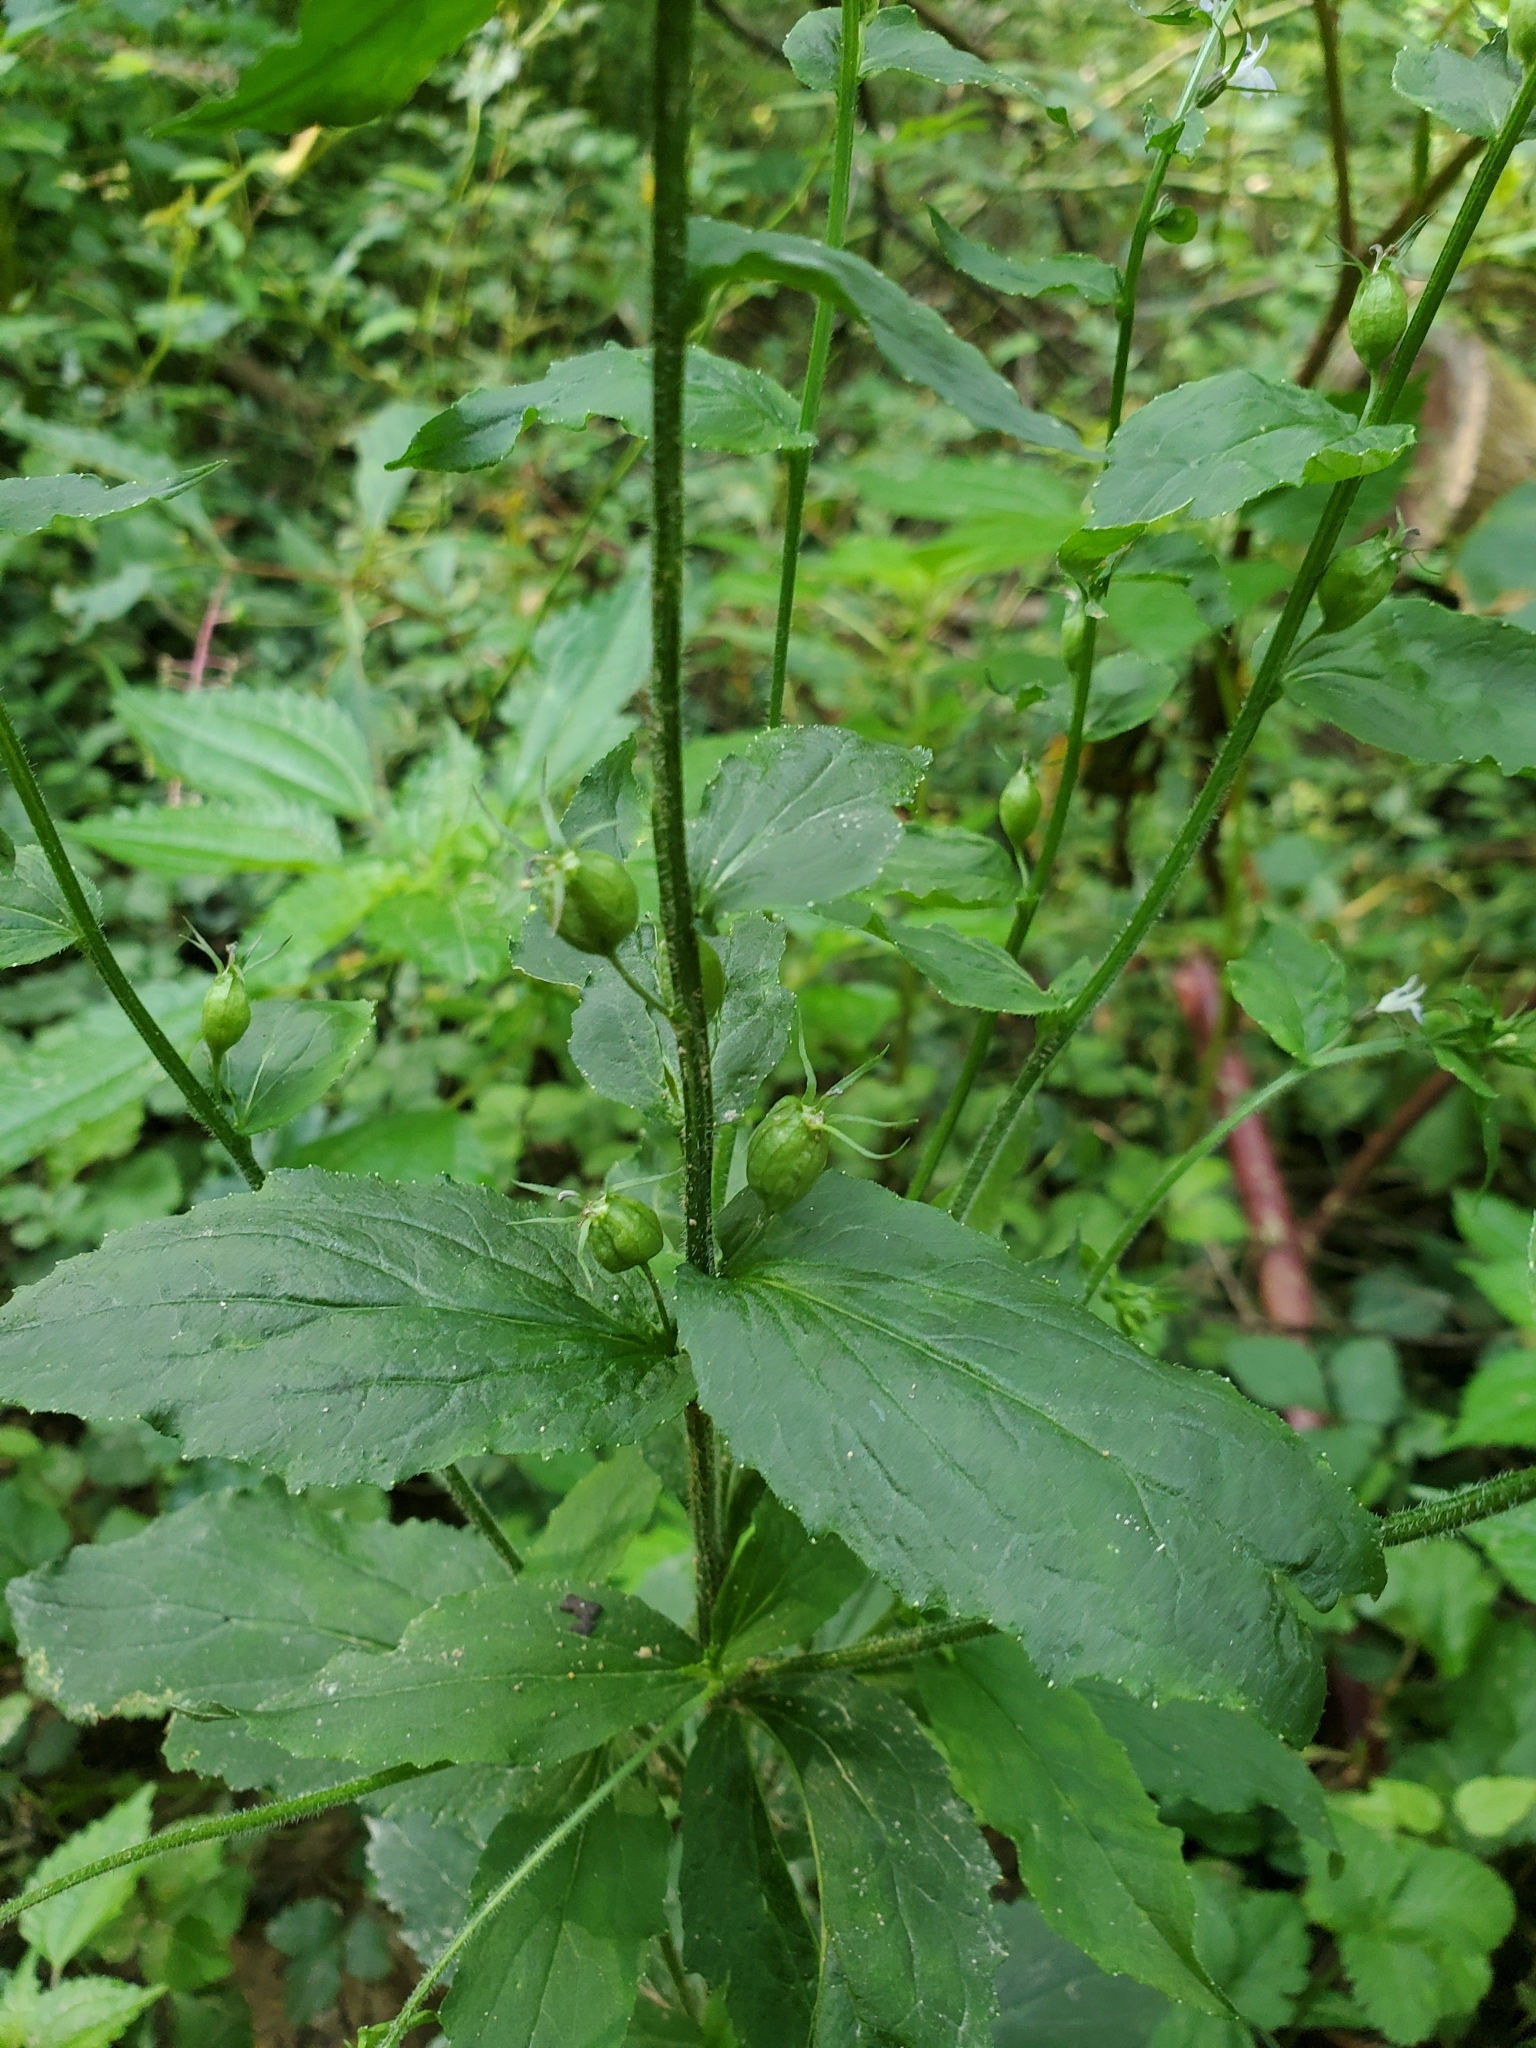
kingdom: Plantae
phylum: Tracheophyta
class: Magnoliopsida
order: Asterales
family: Campanulaceae
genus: Lobelia
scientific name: Lobelia inflata
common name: Indian tobacco
